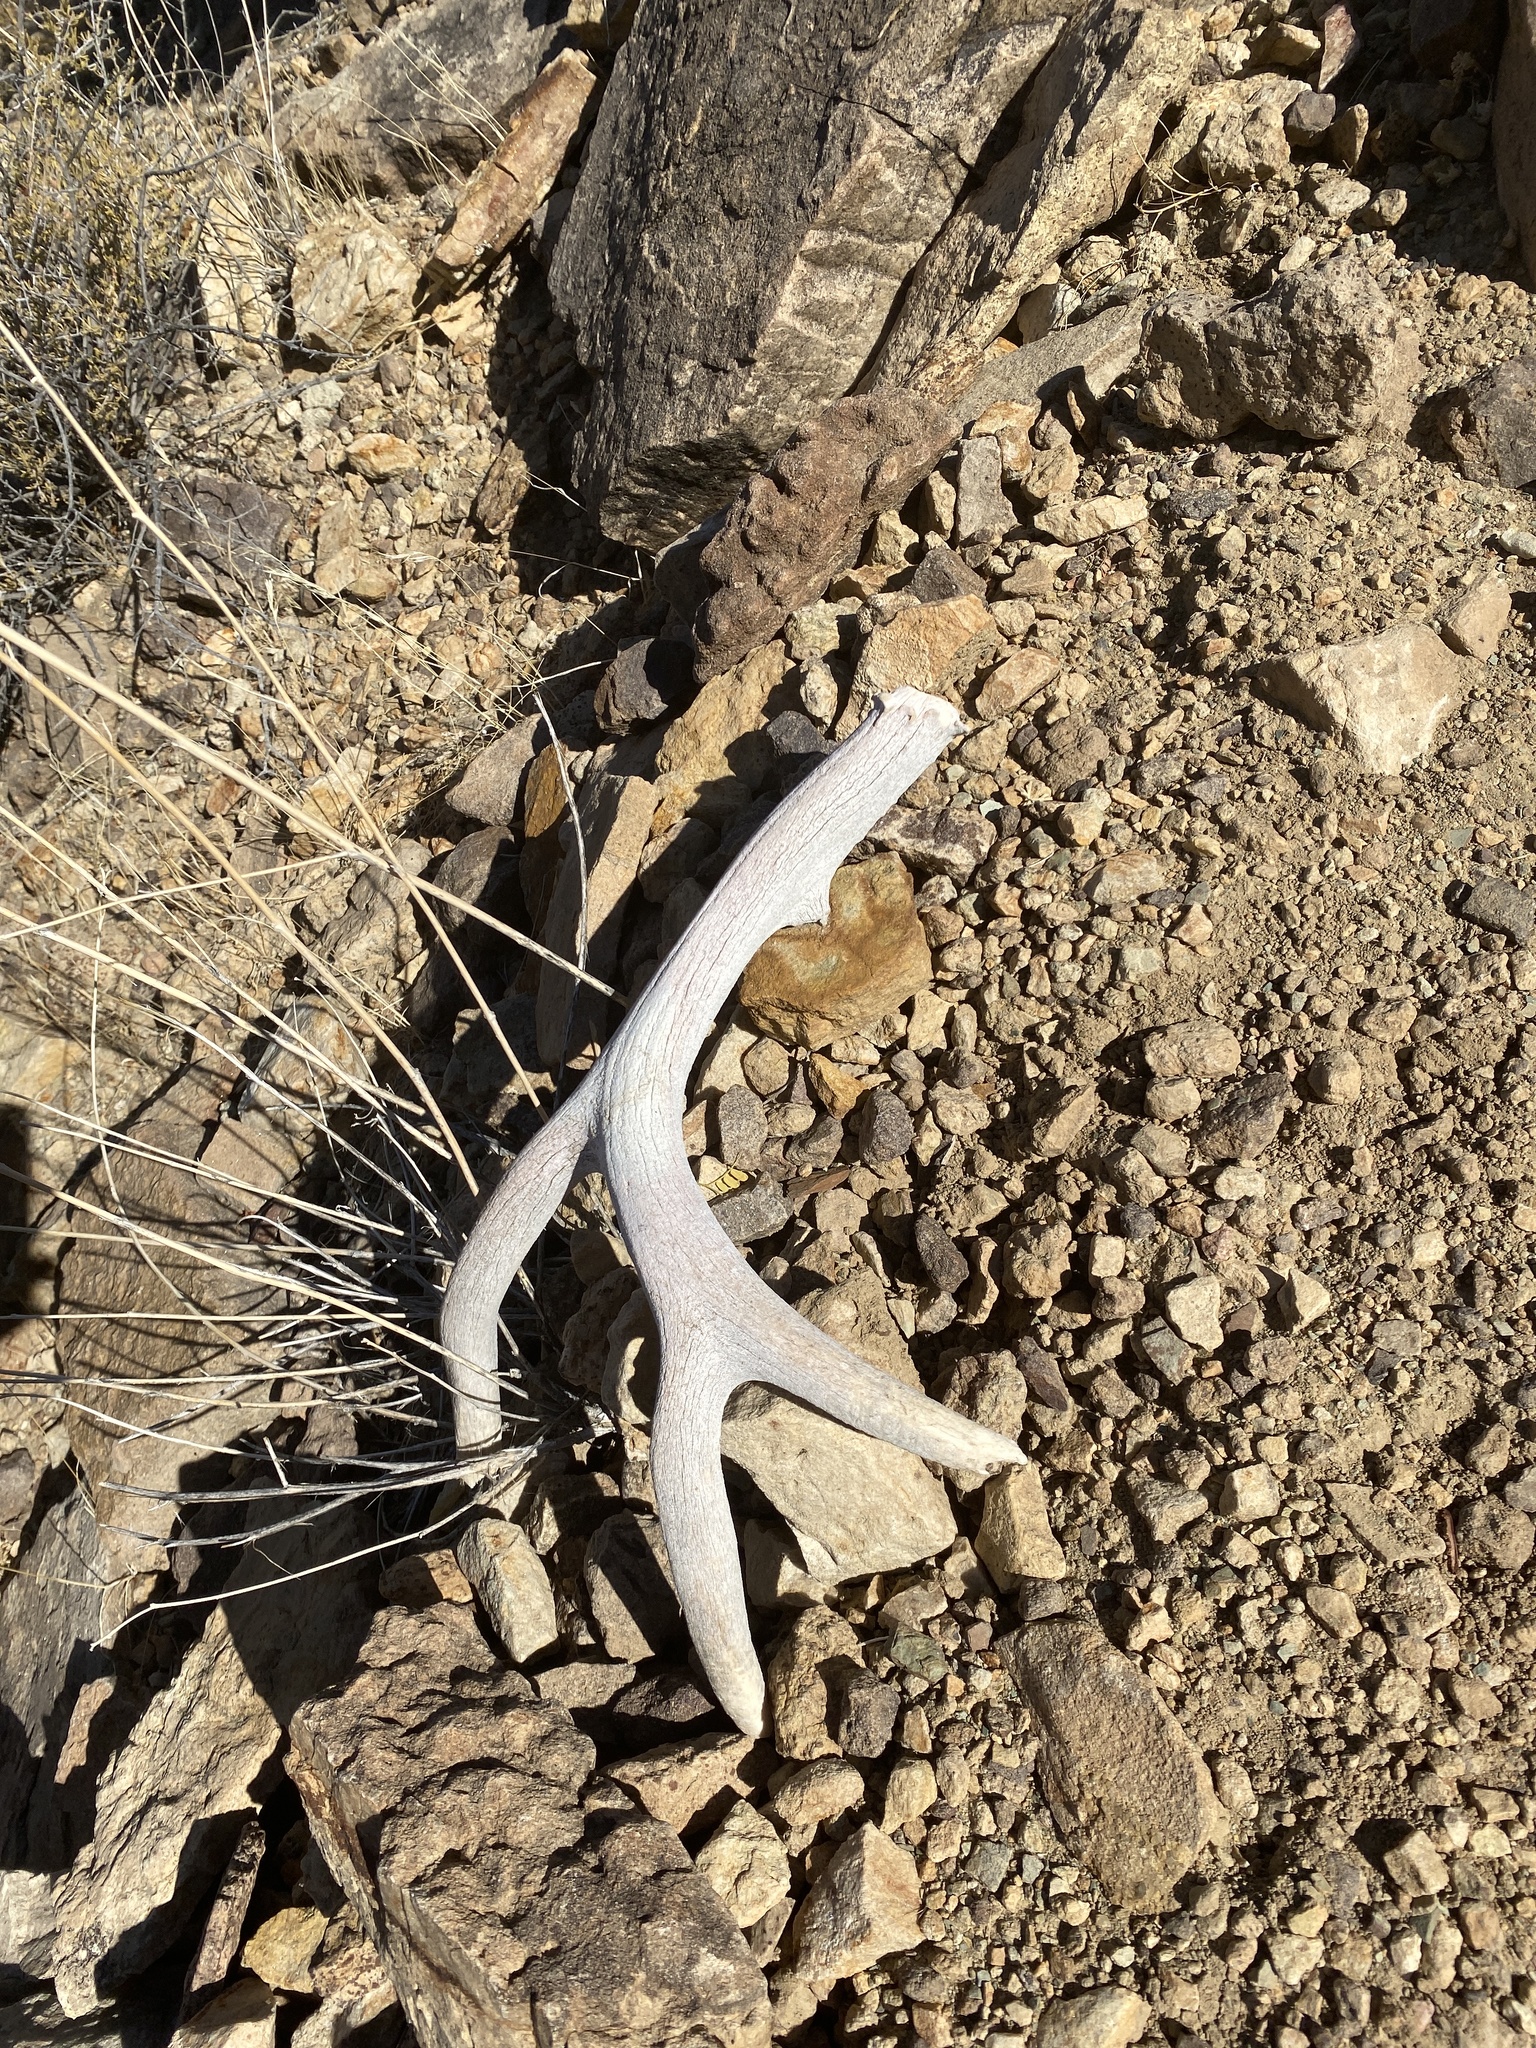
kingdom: Animalia
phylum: Chordata
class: Mammalia
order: Artiodactyla
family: Cervidae
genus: Odocoileus
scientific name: Odocoileus hemionus
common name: Mule deer
